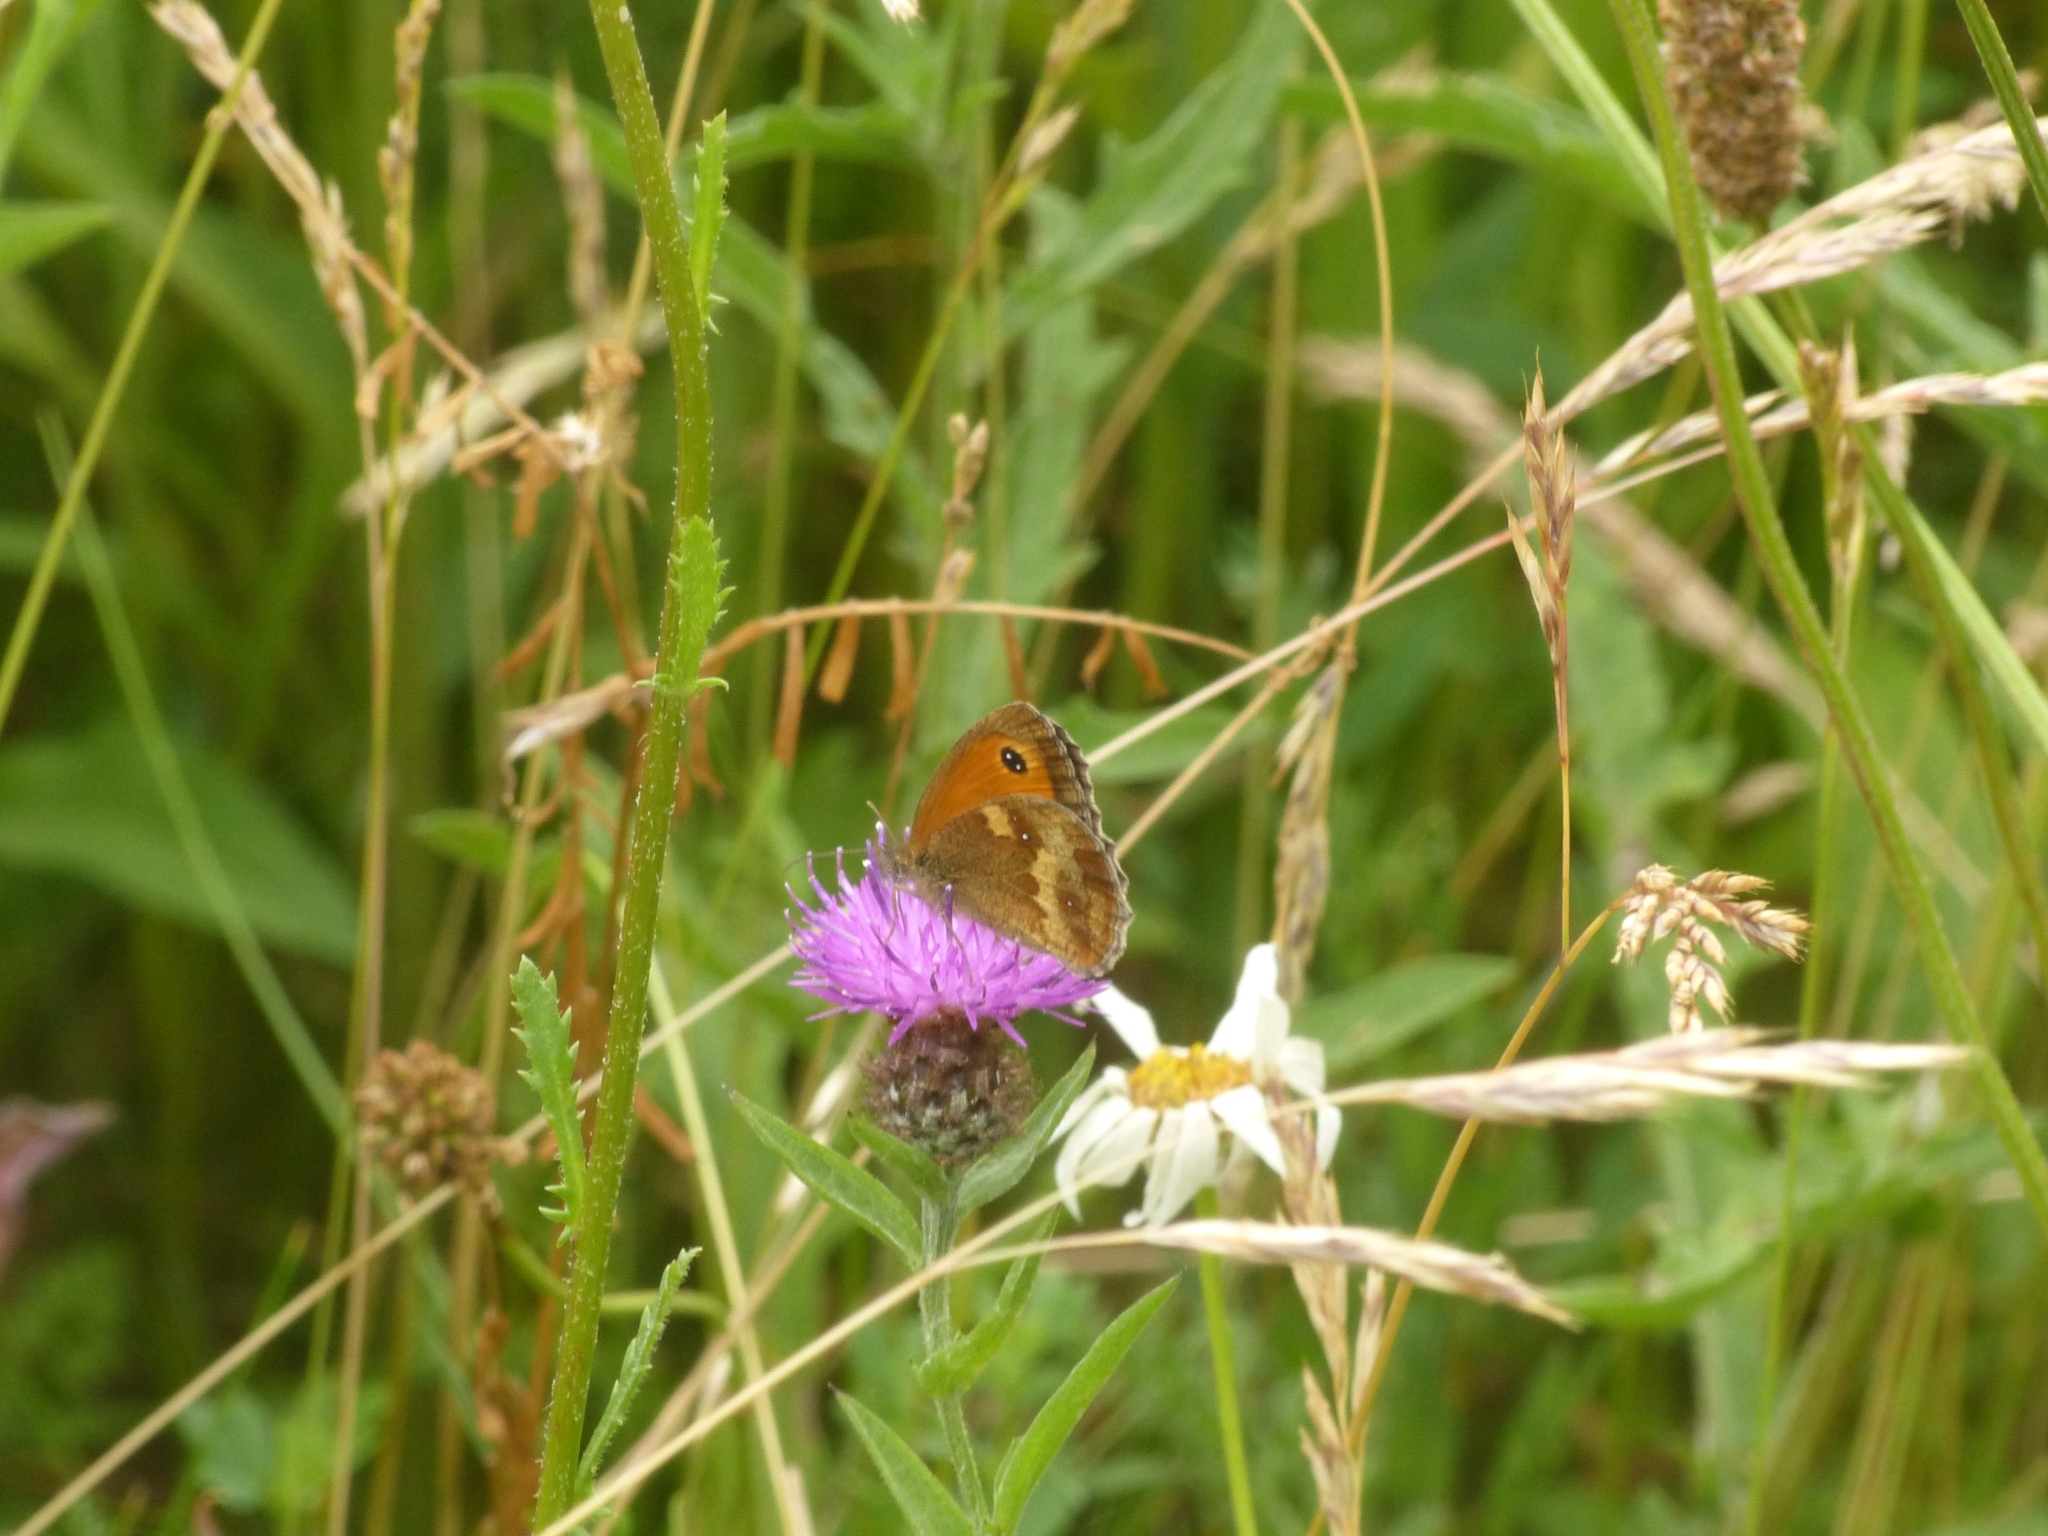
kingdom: Animalia
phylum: Arthropoda
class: Insecta
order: Lepidoptera
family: Nymphalidae
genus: Pyronia
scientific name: Pyronia tithonus
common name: Gatekeeper
